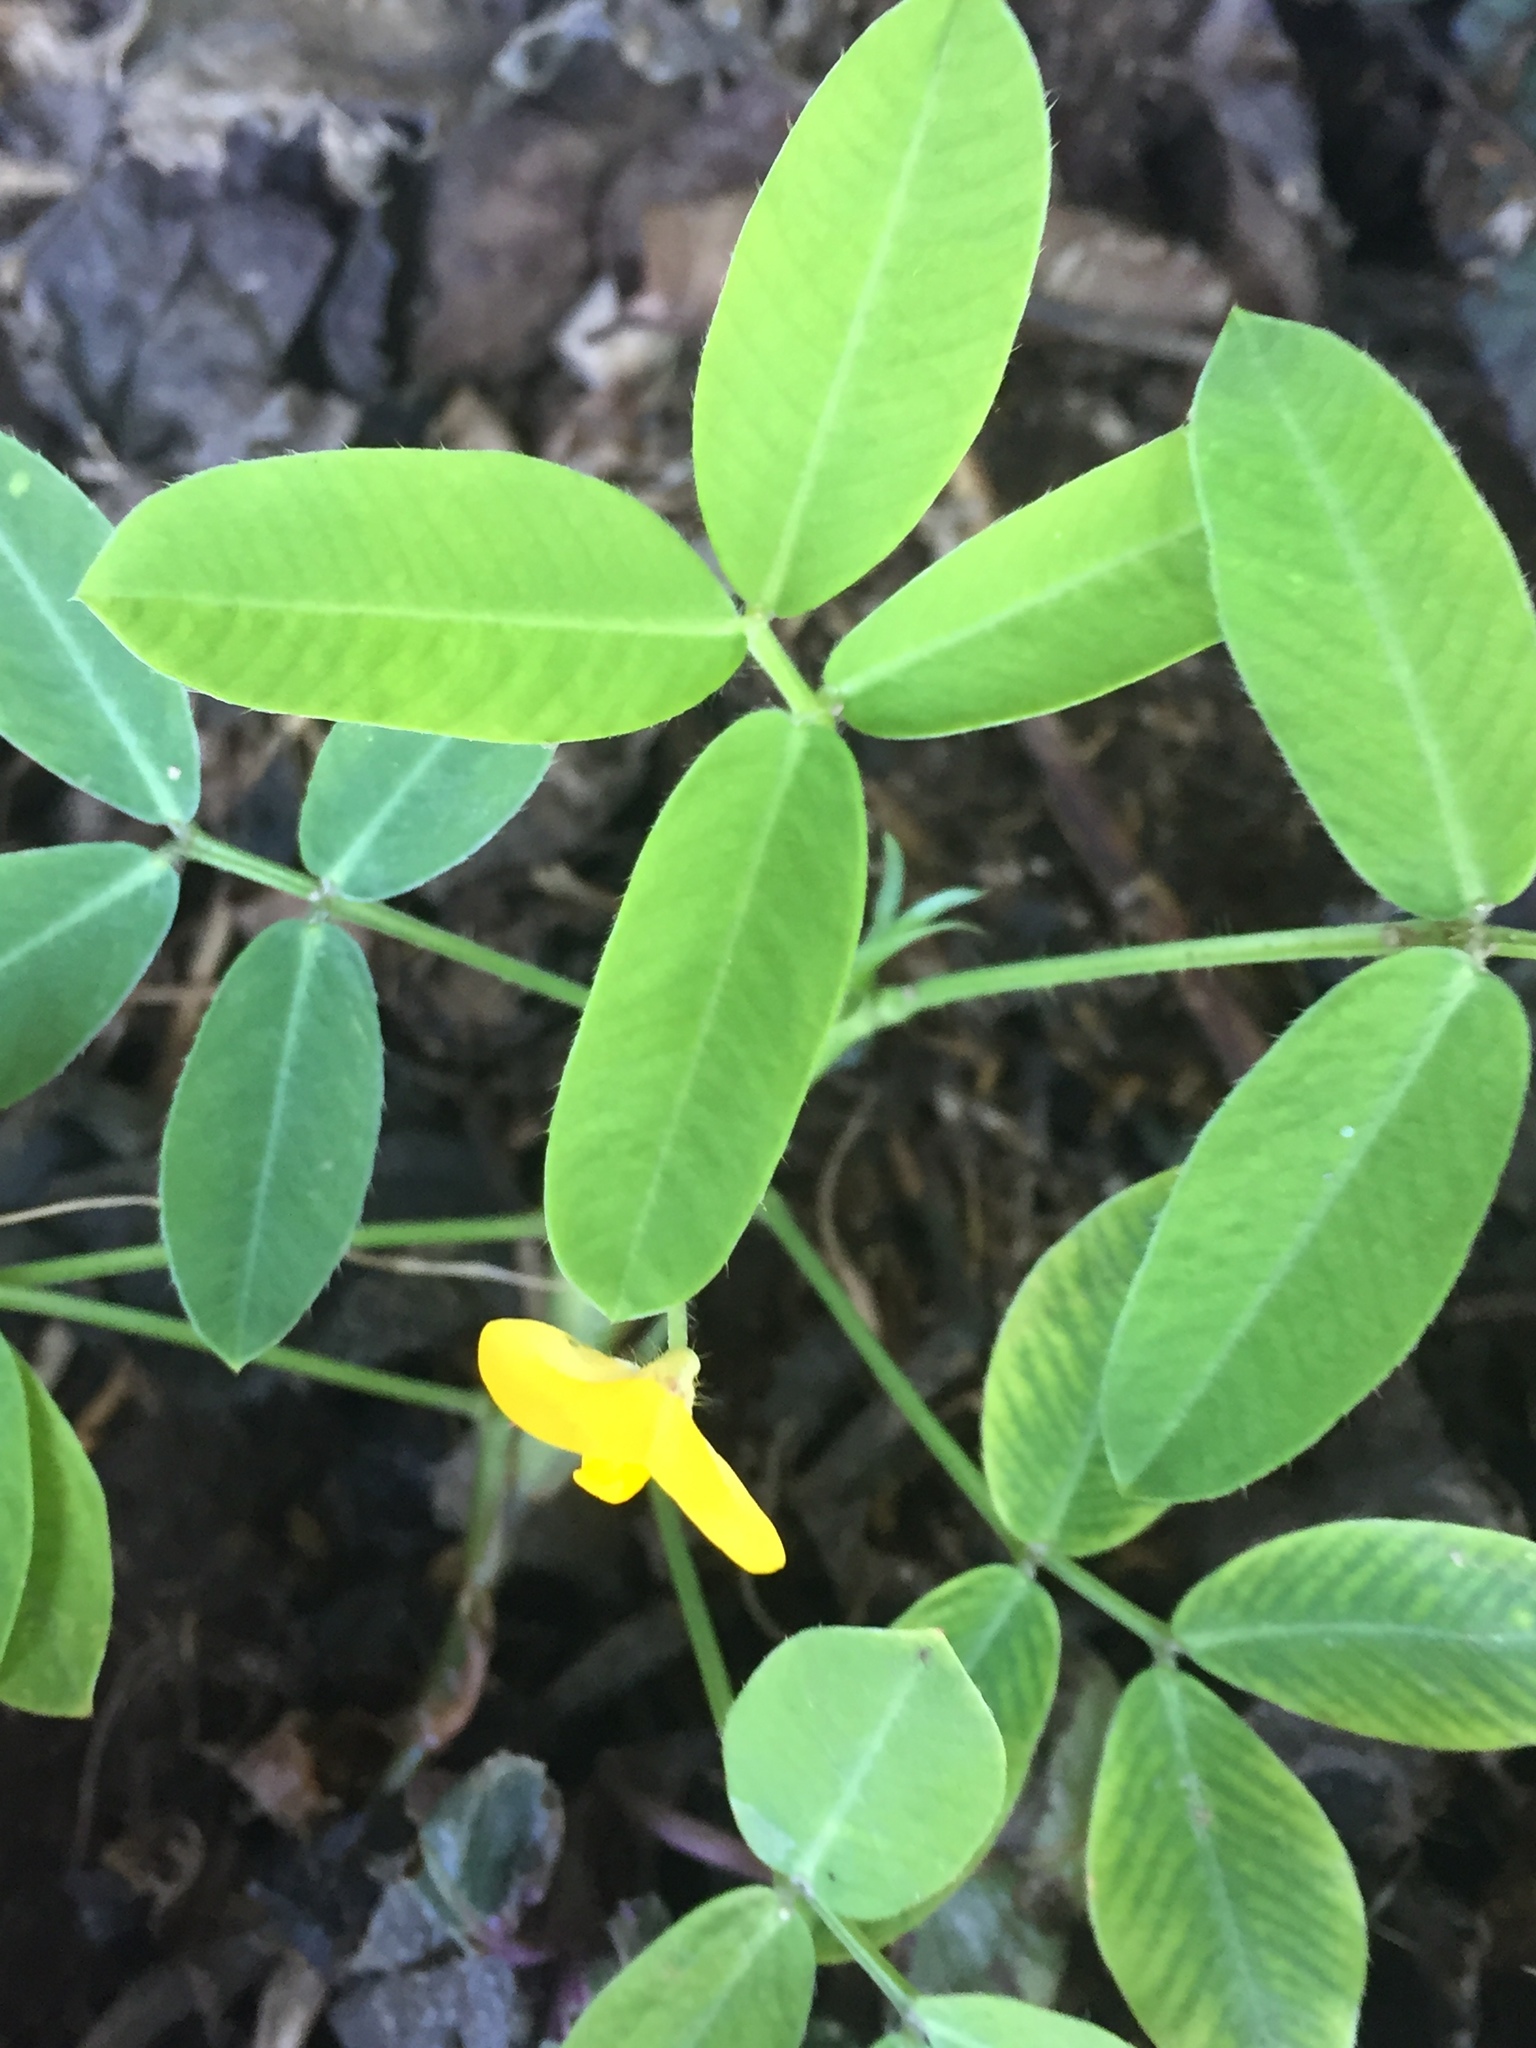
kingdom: Plantae
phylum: Tracheophyta
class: Magnoliopsida
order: Fabales
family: Fabaceae
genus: Arachis
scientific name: Arachis pintoi
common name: Pinto peanut
